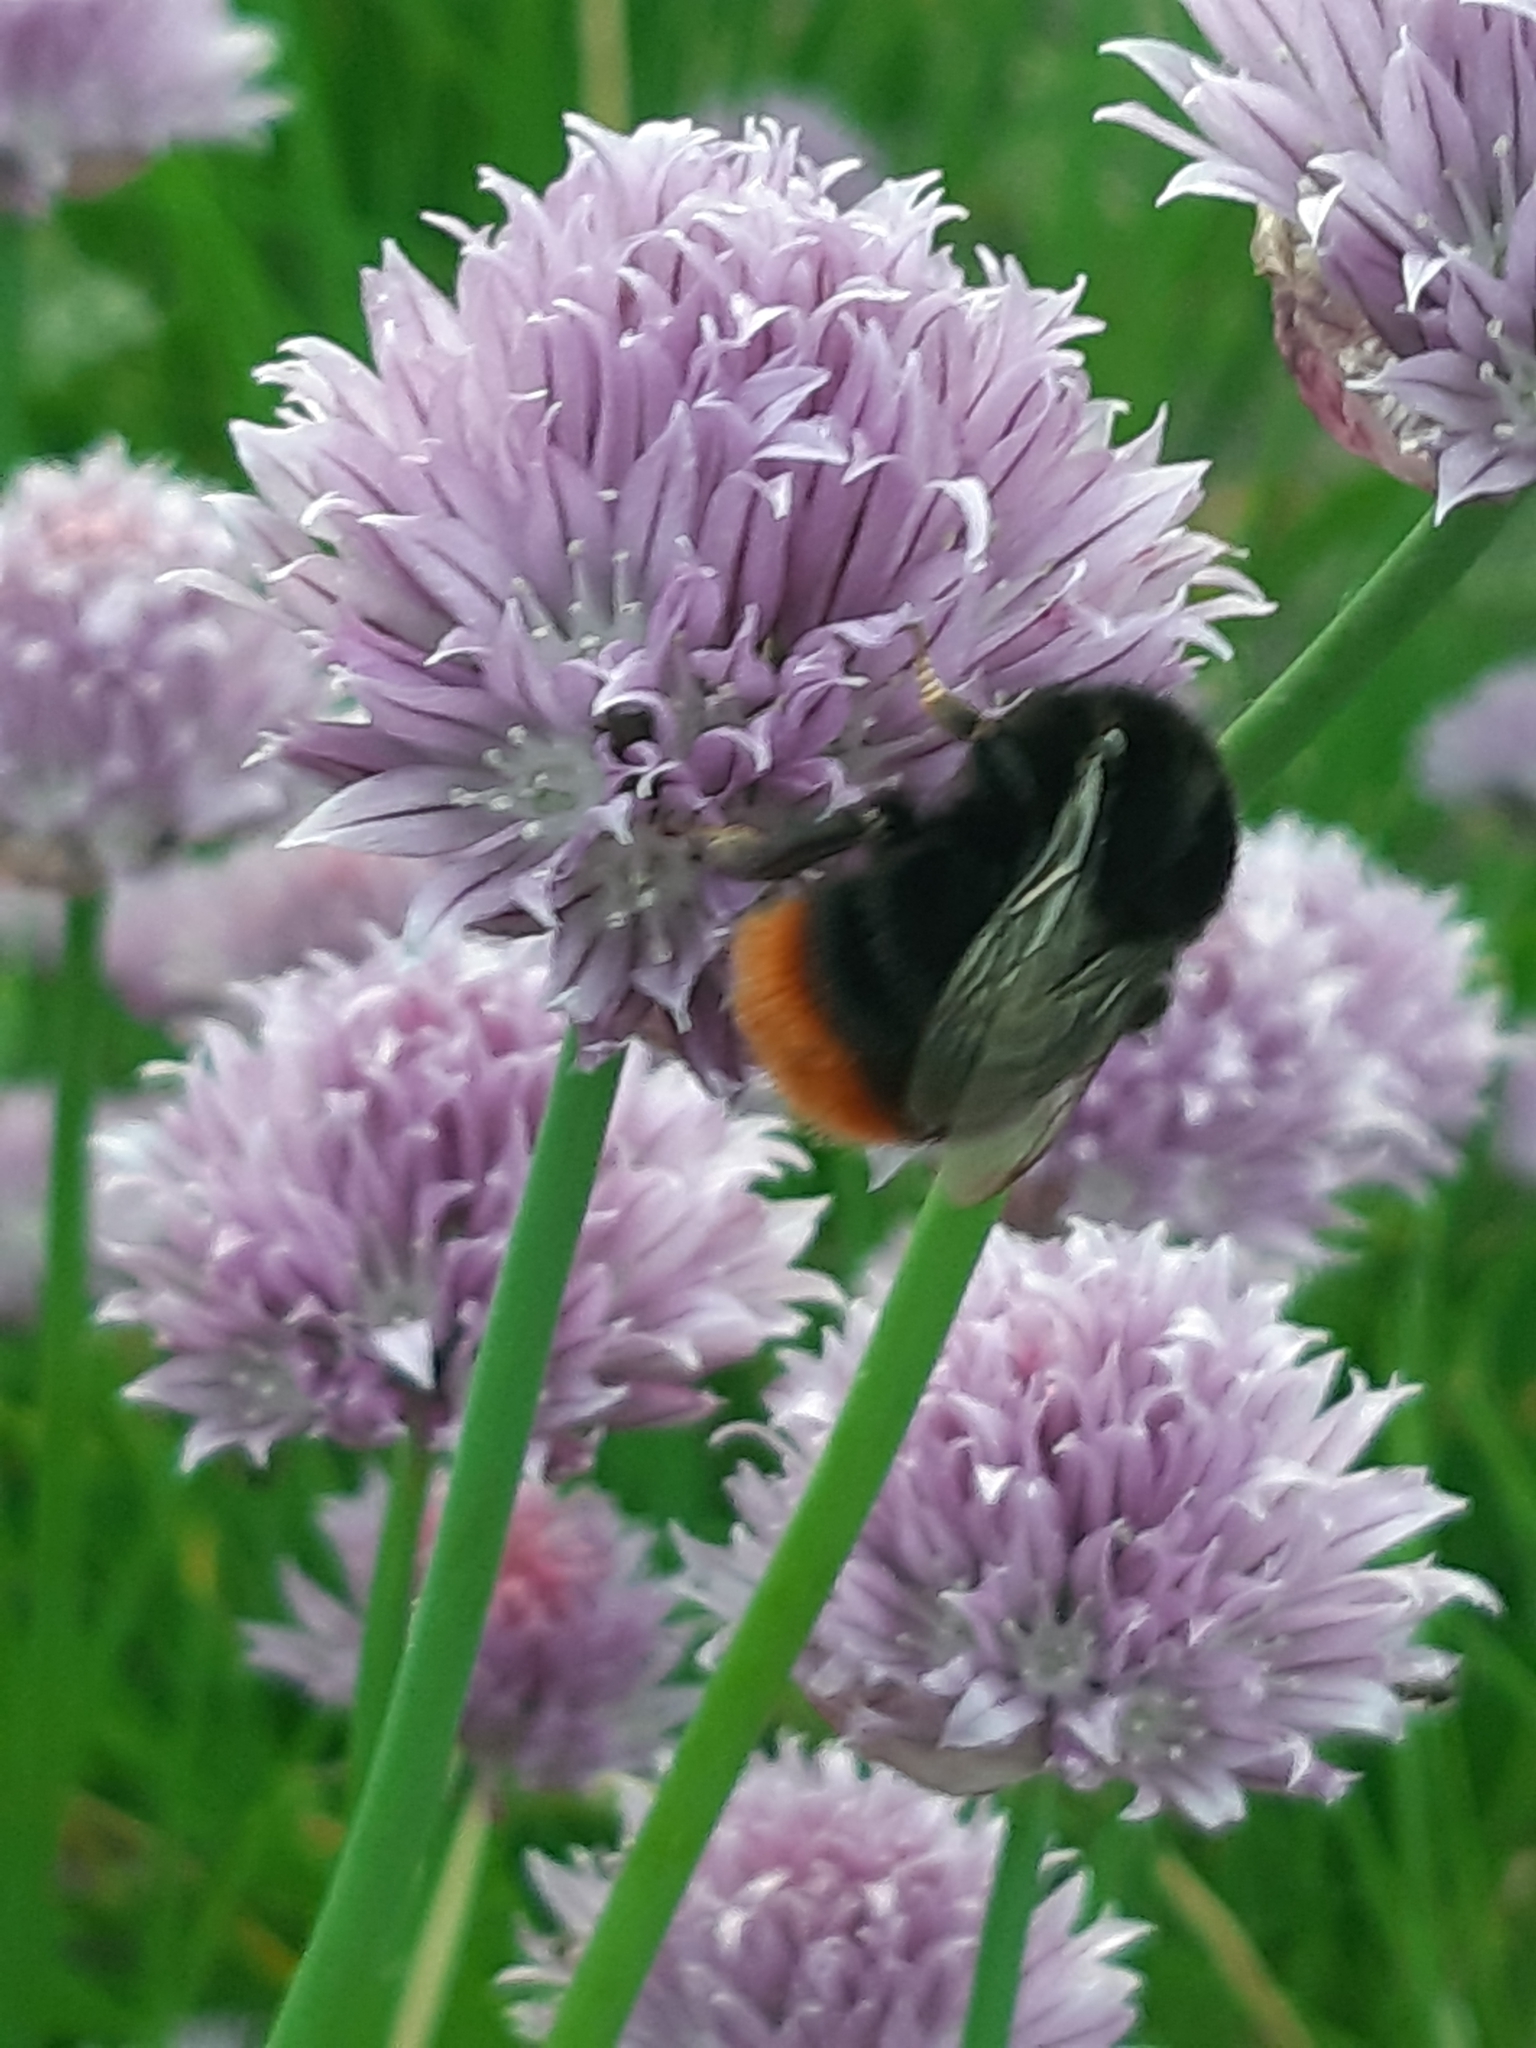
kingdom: Animalia
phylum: Arthropoda
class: Insecta
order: Hymenoptera
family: Apidae
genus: Bombus
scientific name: Bombus lapidarius
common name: Large red-tailed humble-bee
